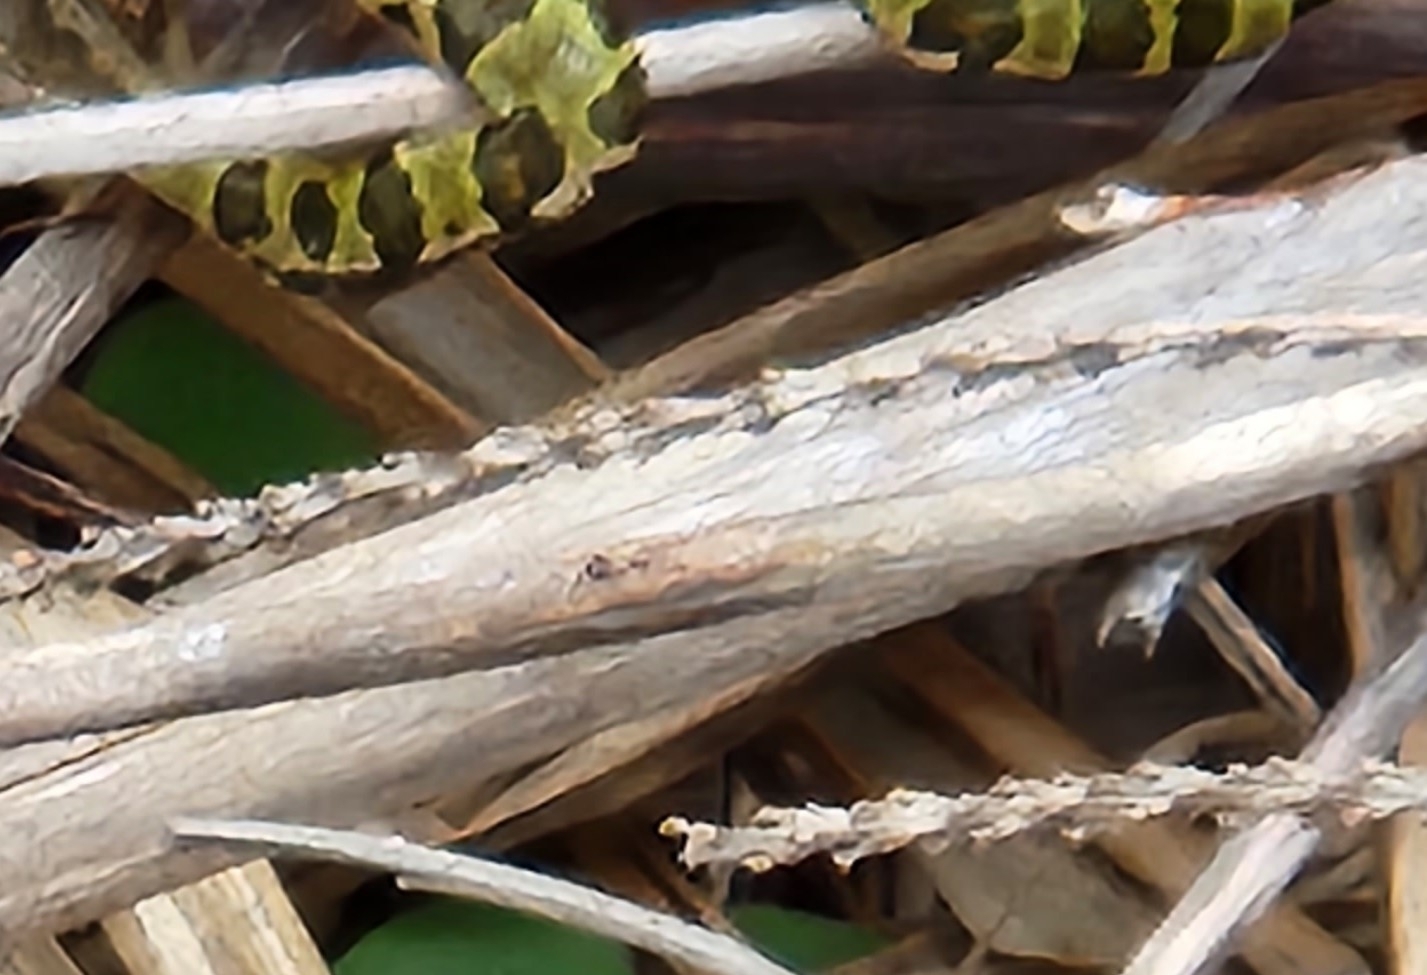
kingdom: Animalia
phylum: Chordata
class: Amphibia
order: Anura
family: Ranidae
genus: Lithobates
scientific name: Lithobates pipiens
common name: Northern leopard frog
